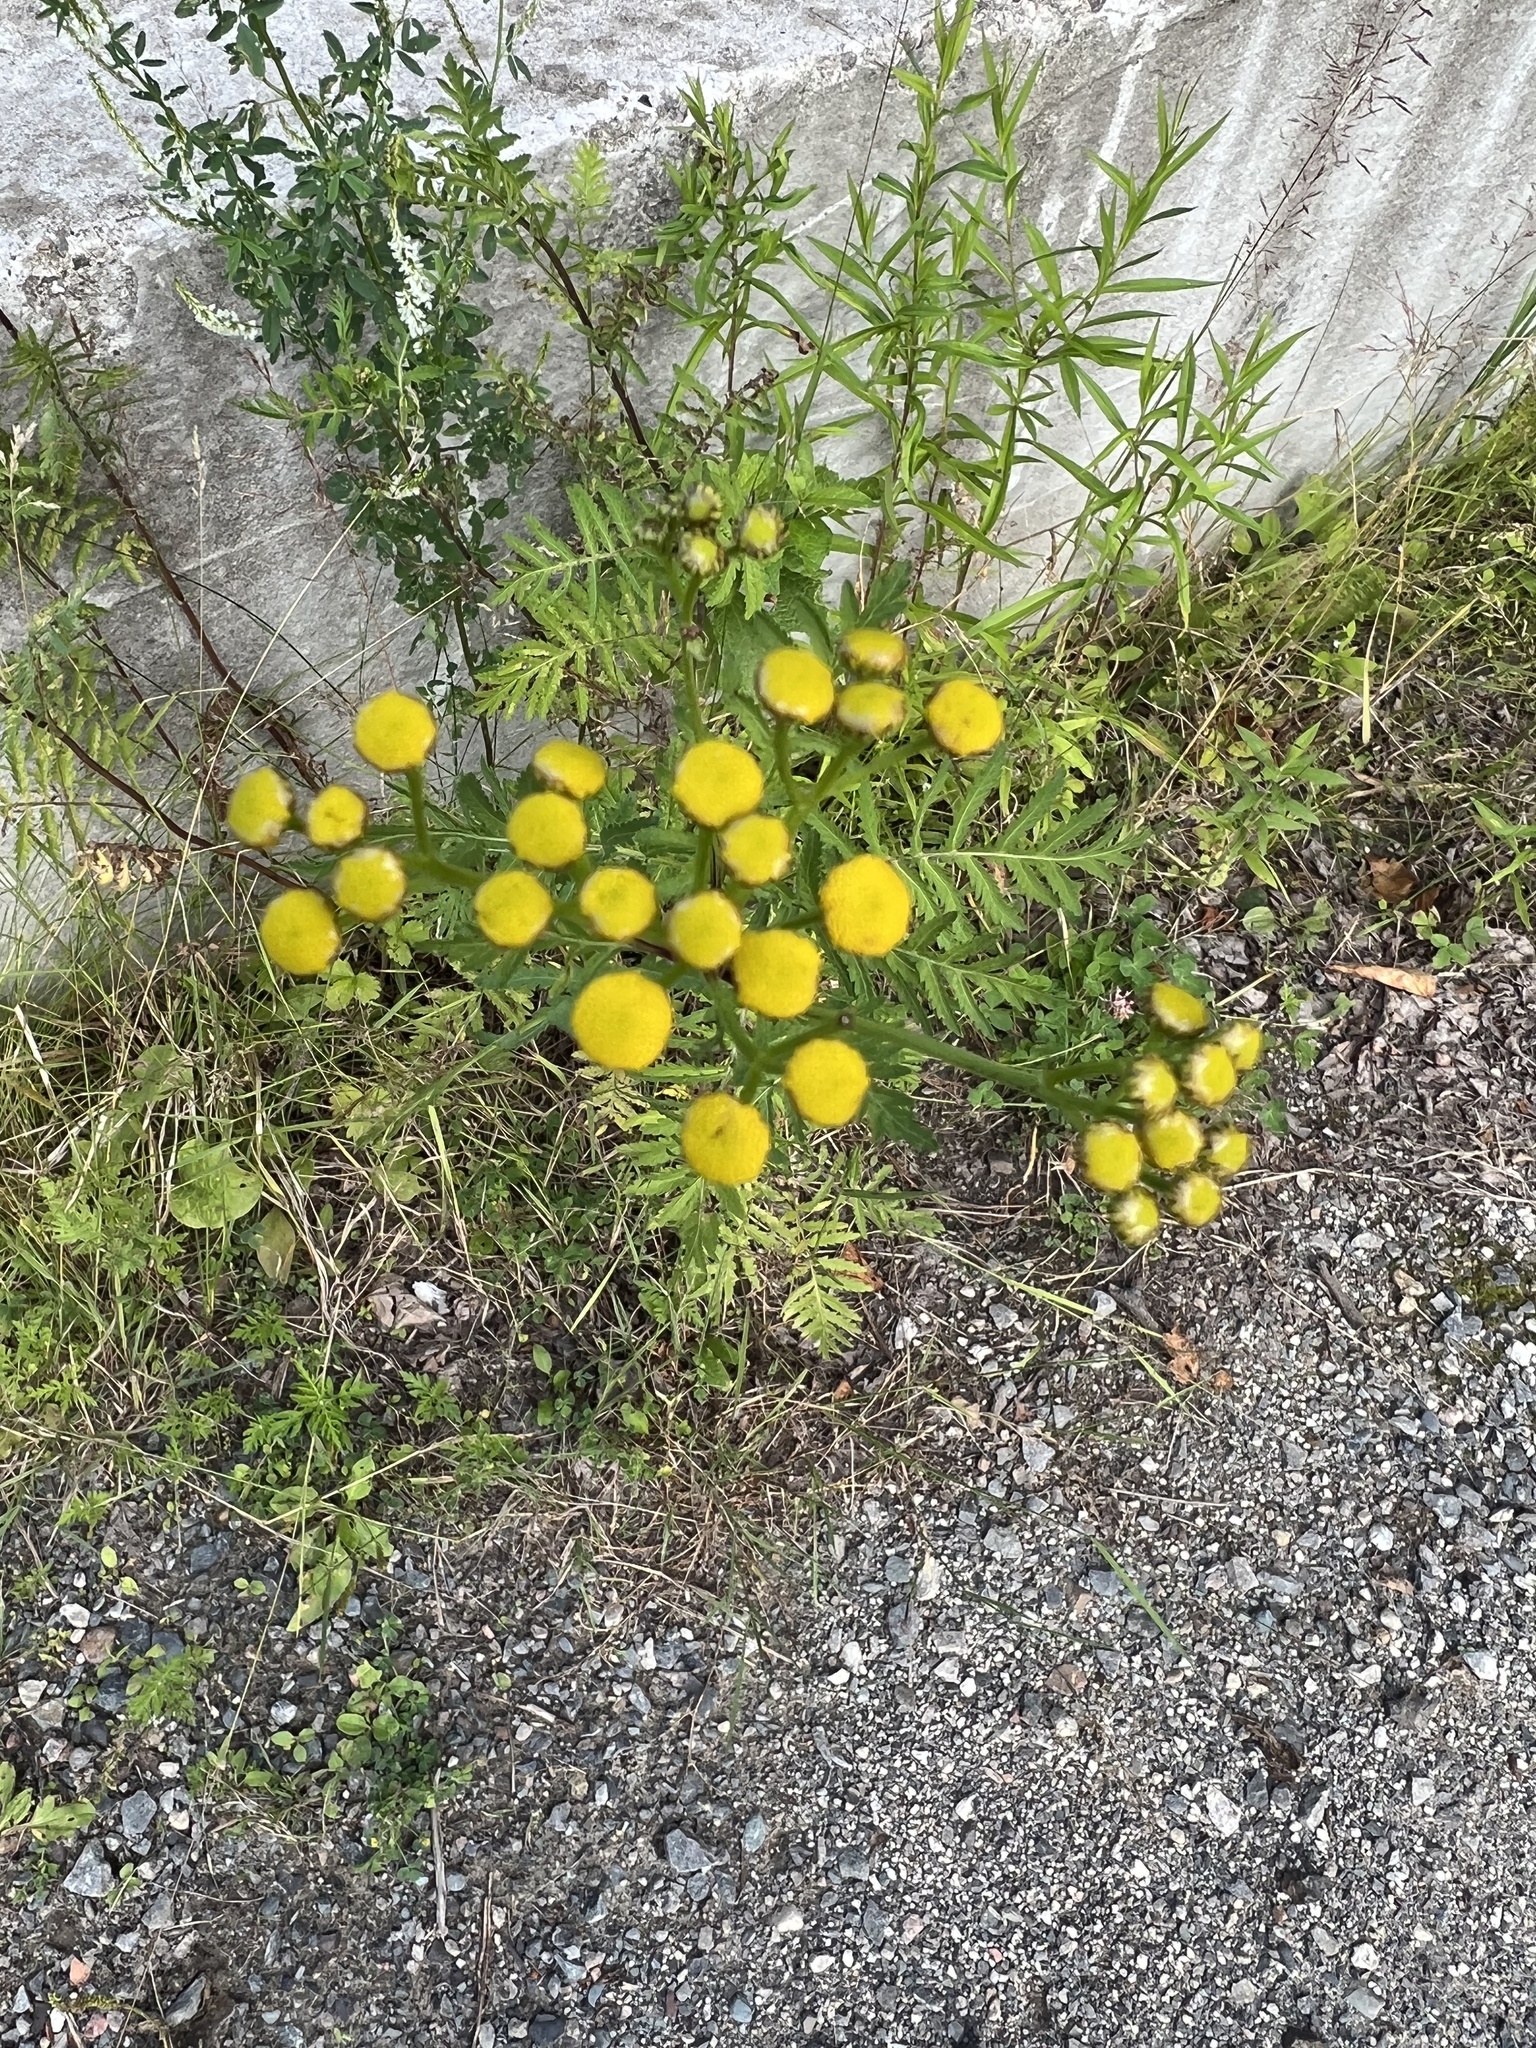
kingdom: Plantae
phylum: Tracheophyta
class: Magnoliopsida
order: Asterales
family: Asteraceae
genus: Tanacetum
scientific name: Tanacetum vulgare
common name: Common tansy
